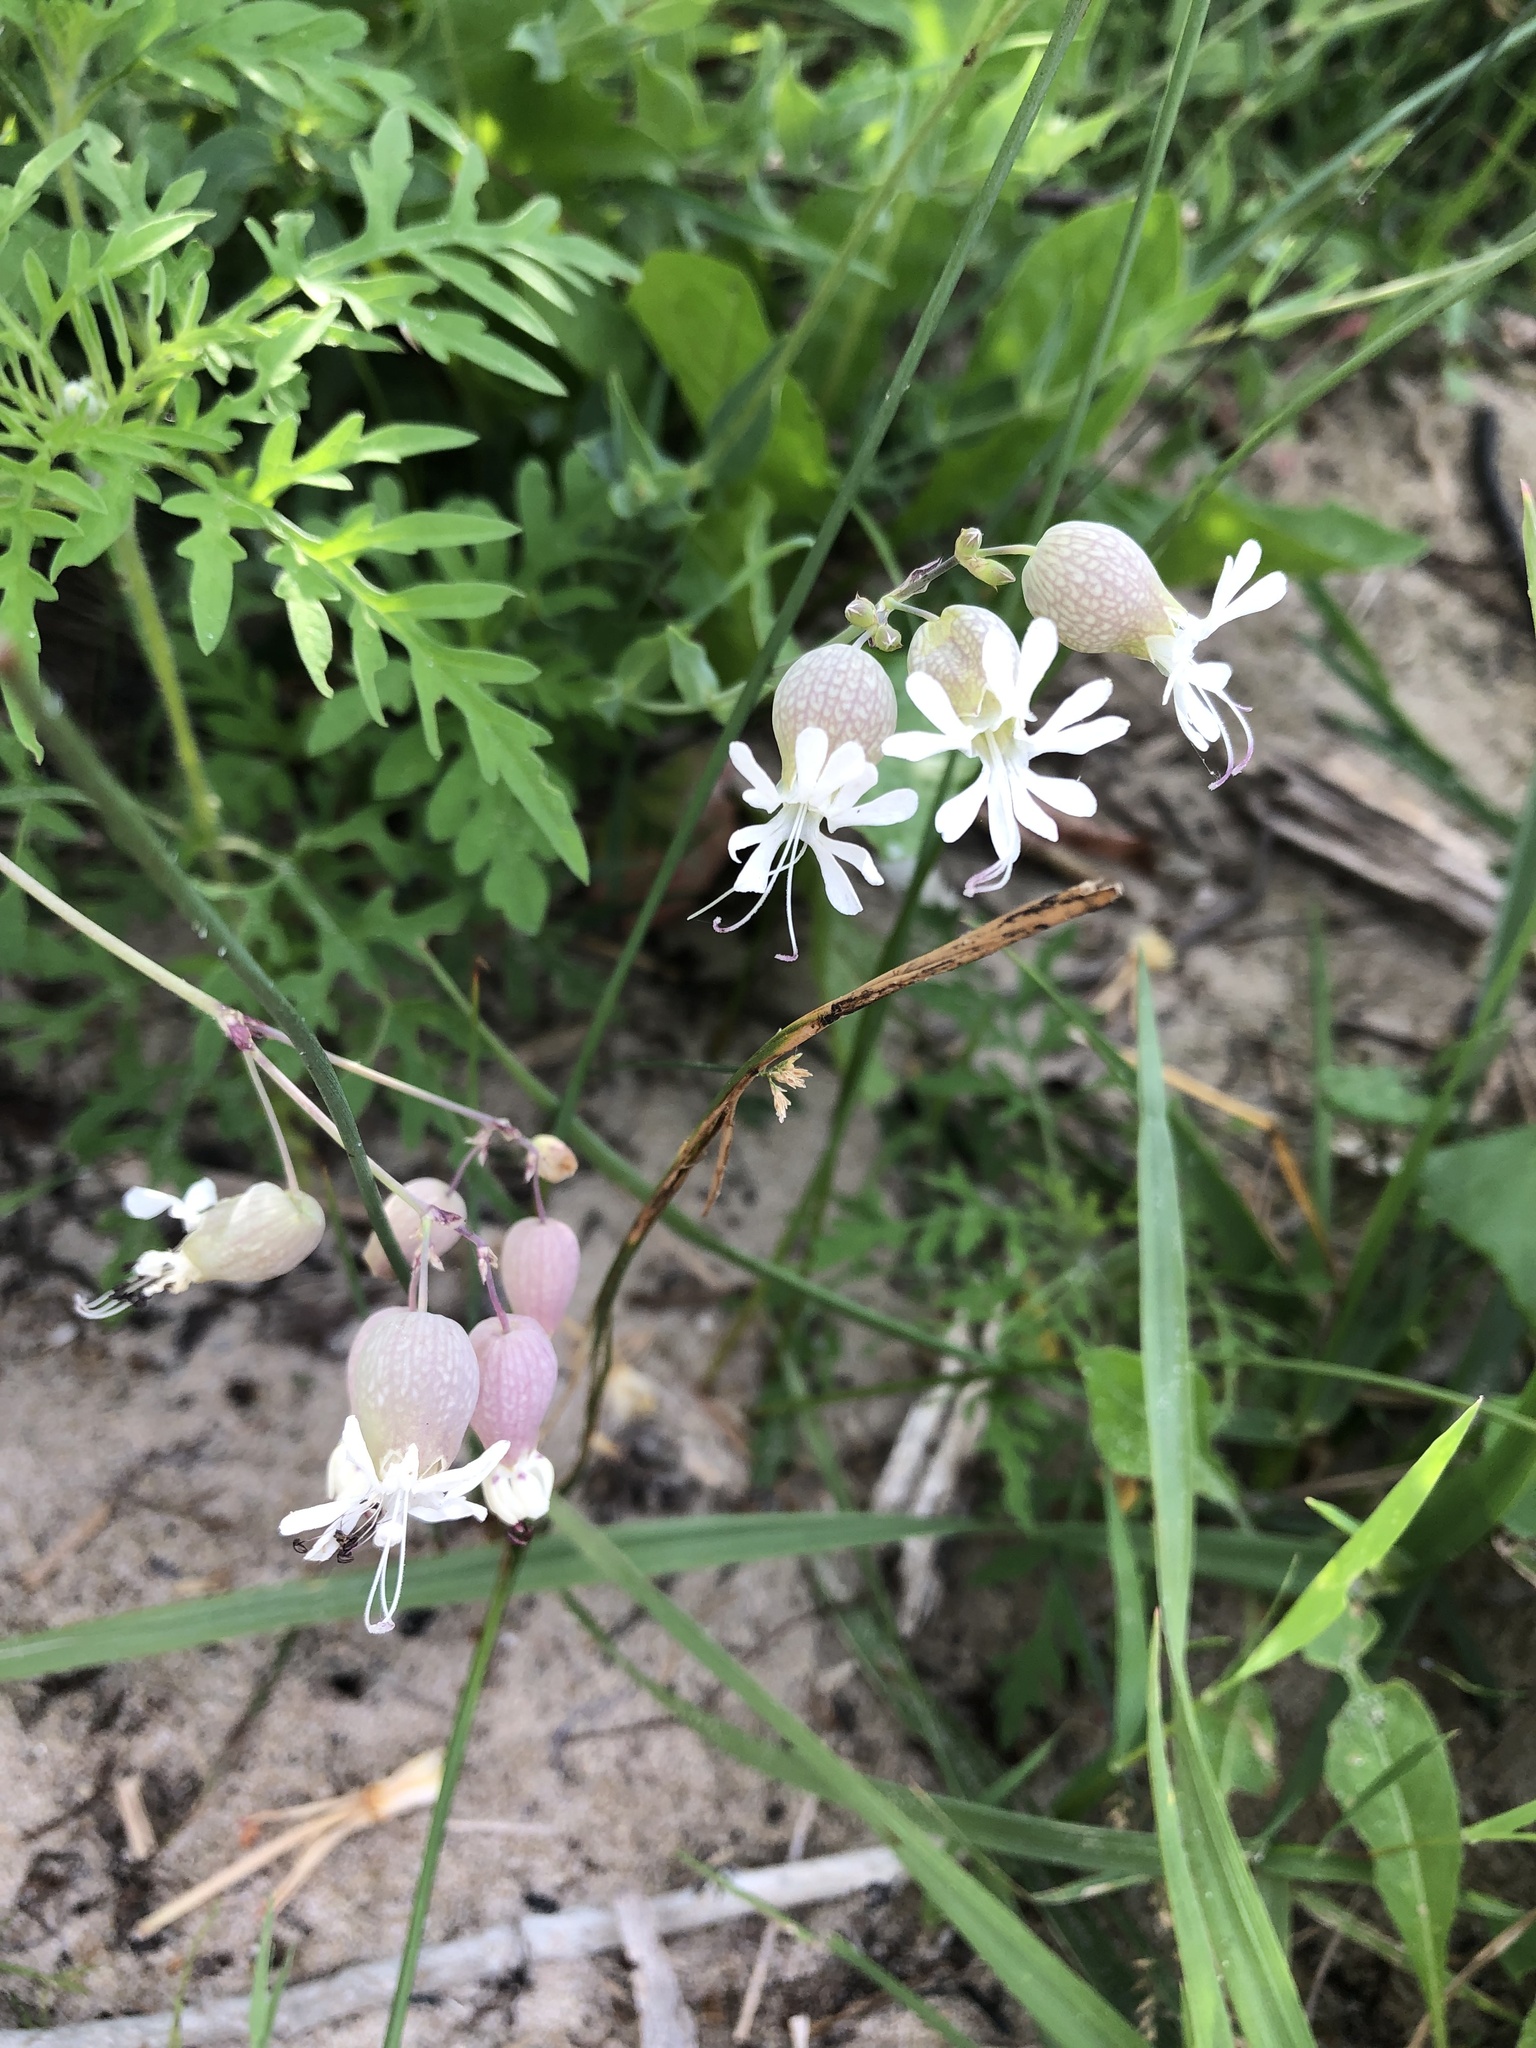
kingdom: Plantae
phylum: Tracheophyta
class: Magnoliopsida
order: Caryophyllales
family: Caryophyllaceae
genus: Silene
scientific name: Silene vulgaris
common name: Bladder campion
